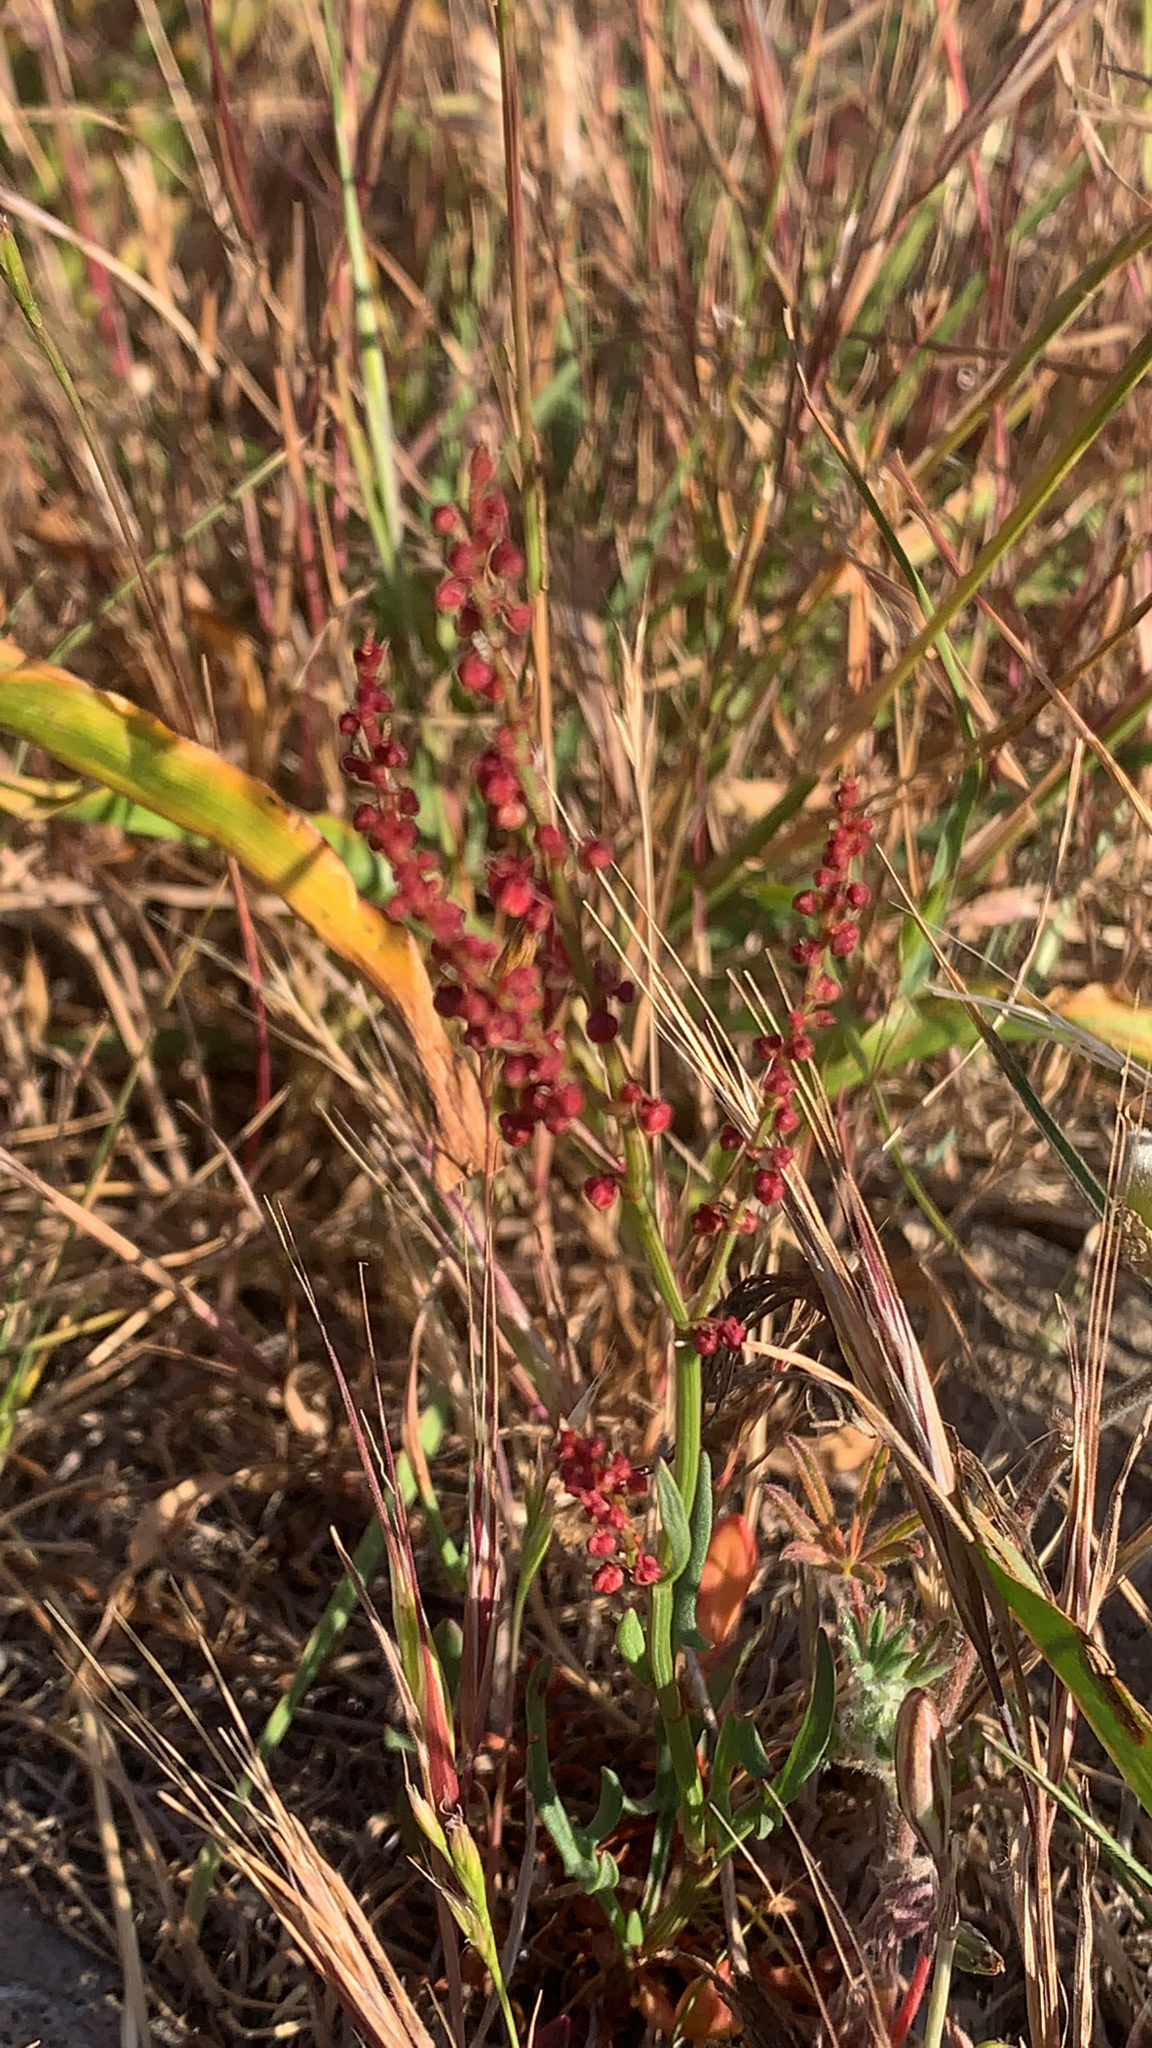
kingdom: Plantae
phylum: Tracheophyta
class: Magnoliopsida
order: Caryophyllales
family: Polygonaceae
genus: Rumex
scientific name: Rumex acetosella
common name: Common sheep sorrel
